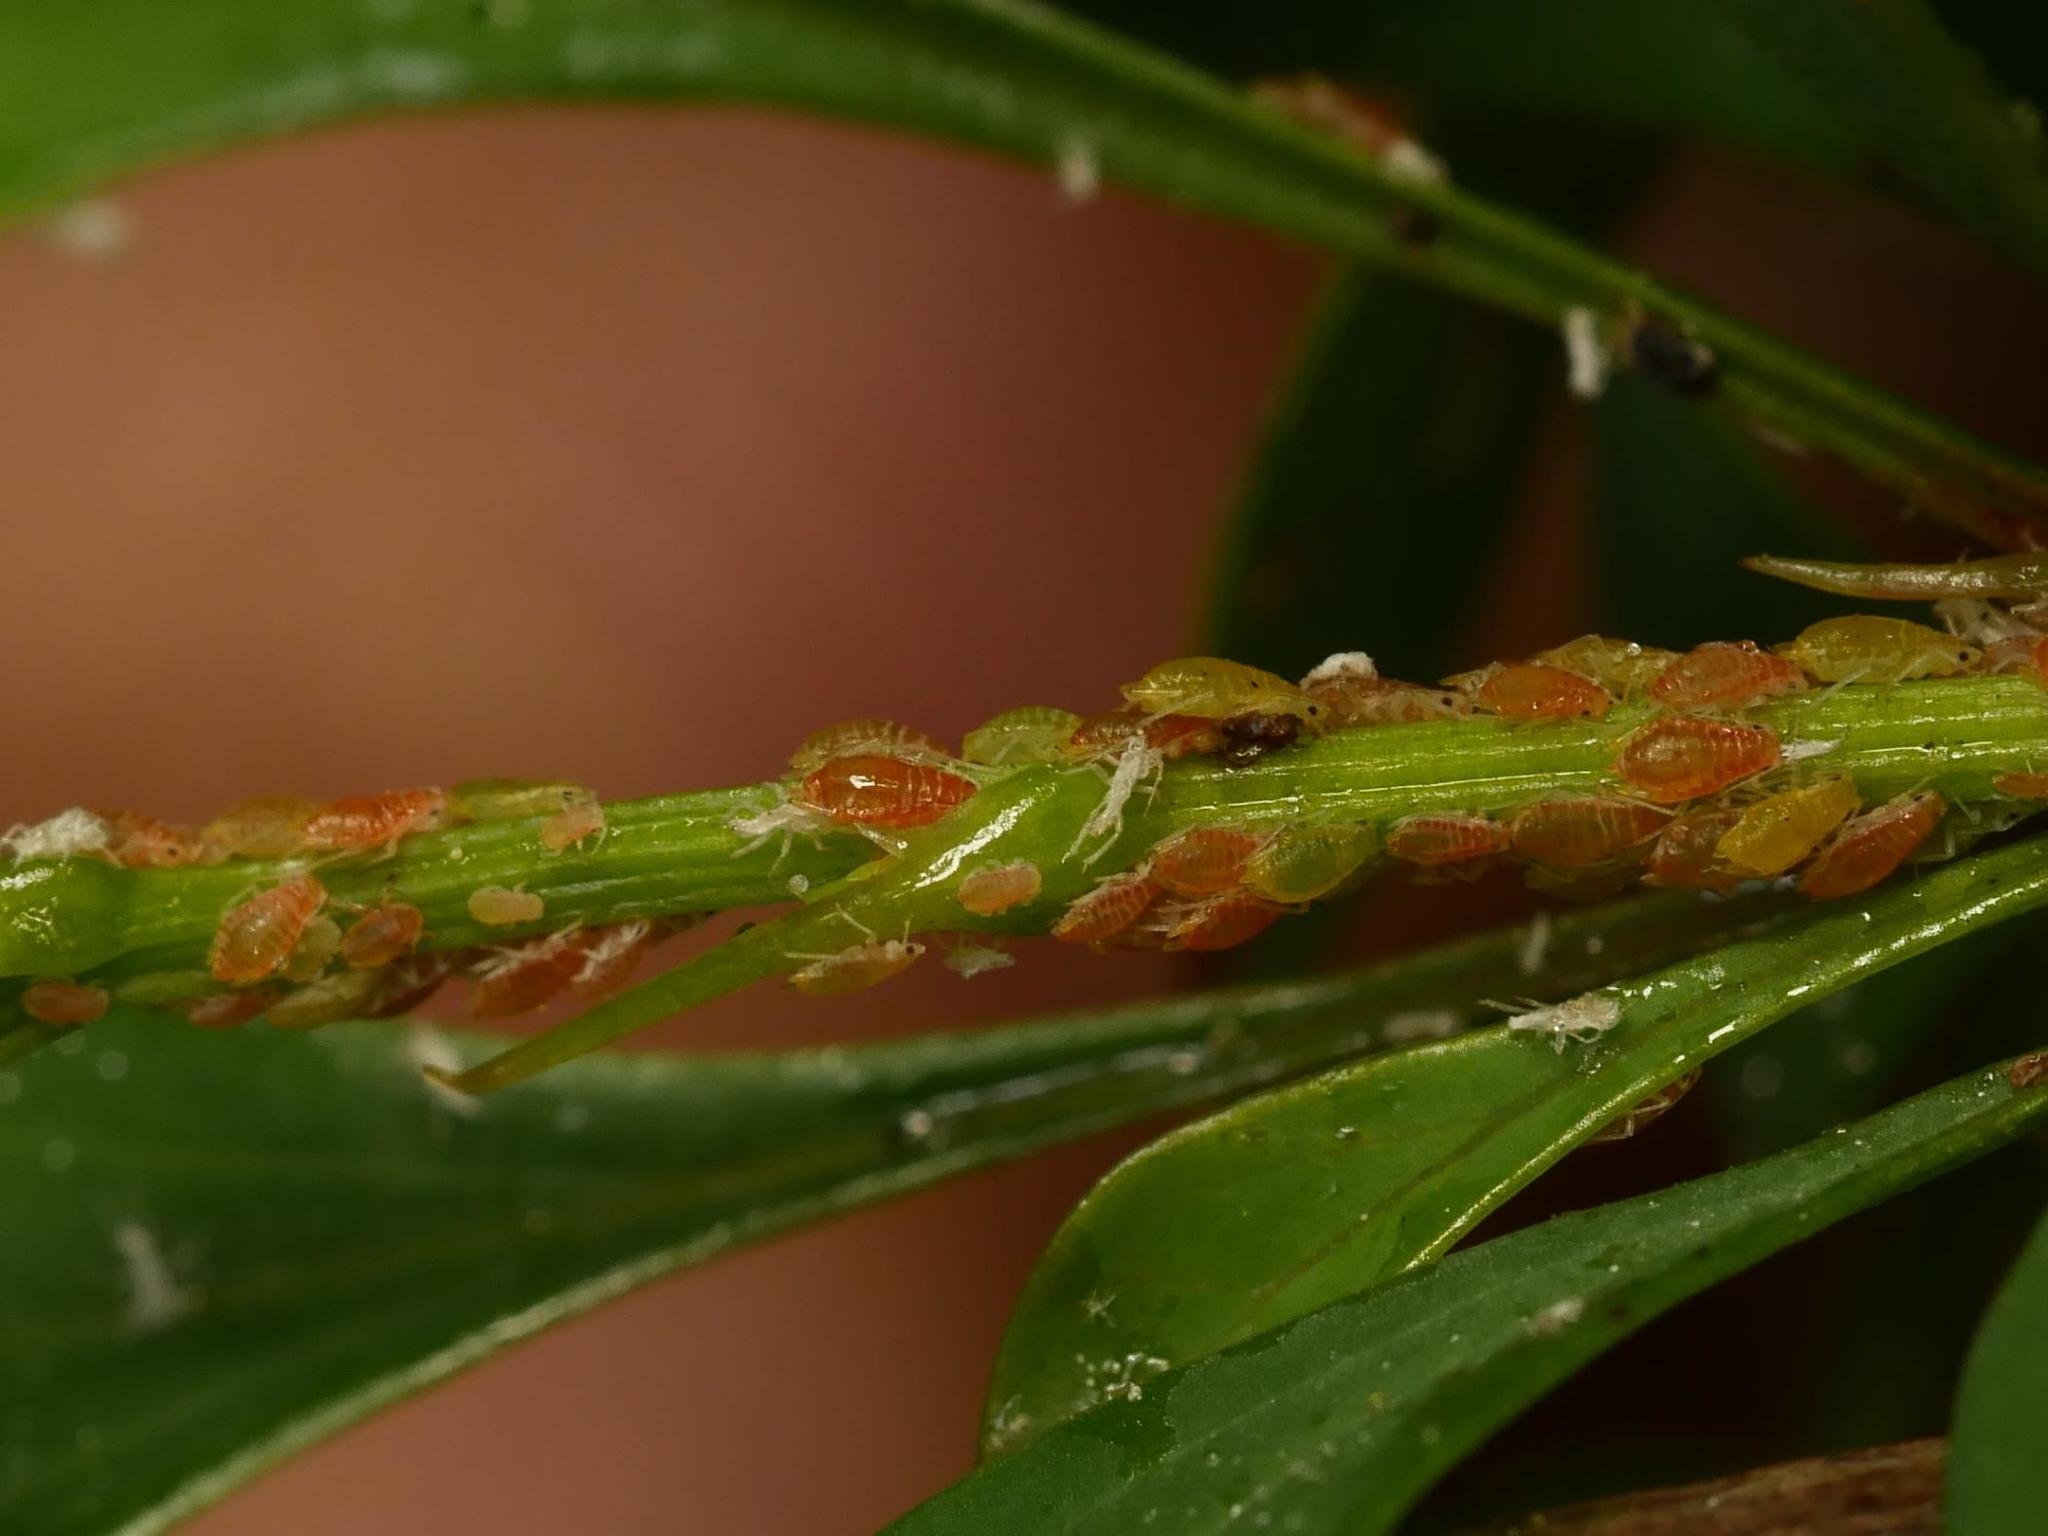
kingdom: Animalia
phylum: Arthropoda
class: Insecta
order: Hemiptera
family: Aphididae
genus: Liosomaphis
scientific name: Liosomaphis berberidis
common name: Barberry aphid
